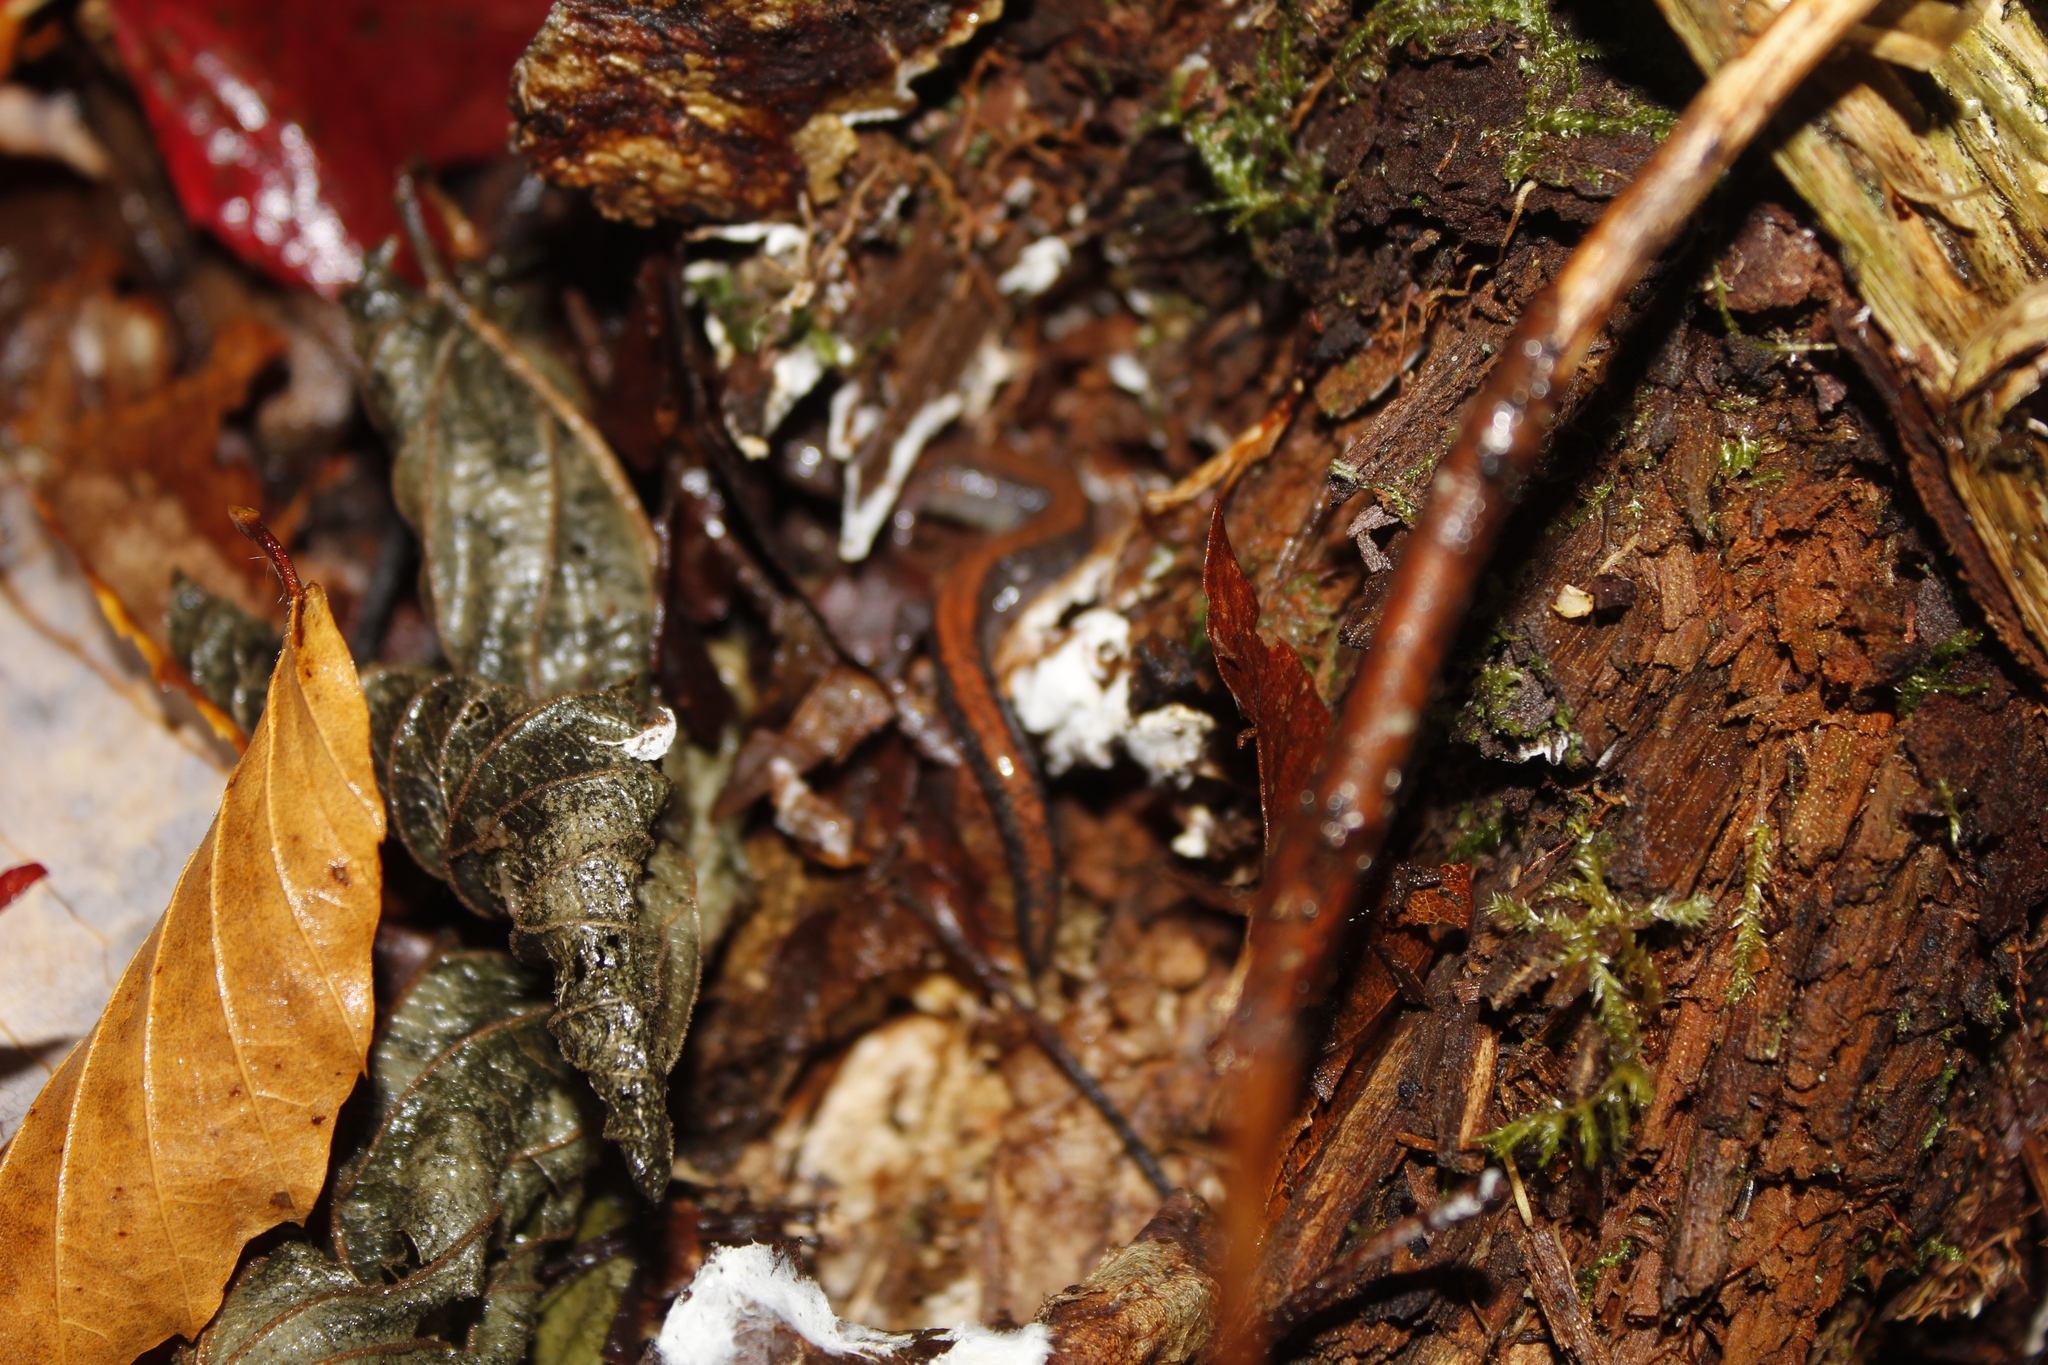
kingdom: Animalia
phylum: Chordata
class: Amphibia
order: Caudata
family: Plethodontidae
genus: Plethodon
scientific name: Plethodon cinereus
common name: Redback salamander
